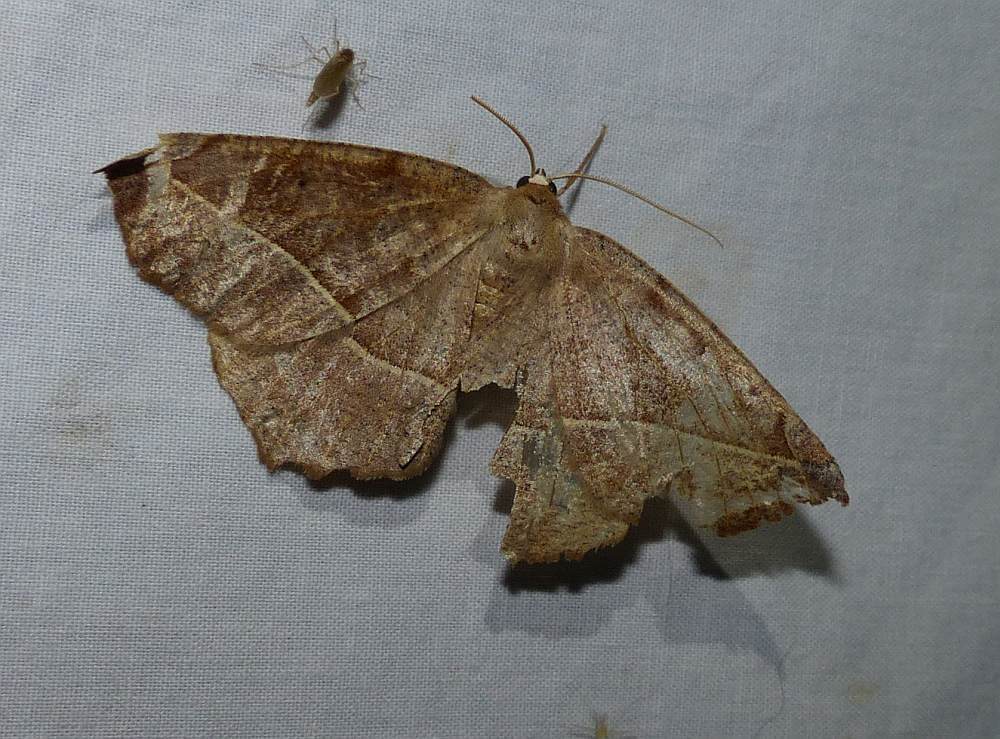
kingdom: Animalia
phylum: Arthropoda
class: Insecta
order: Lepidoptera
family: Geometridae
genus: Eutrapela
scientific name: Eutrapela clemataria
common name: Curved-toothed geometer
